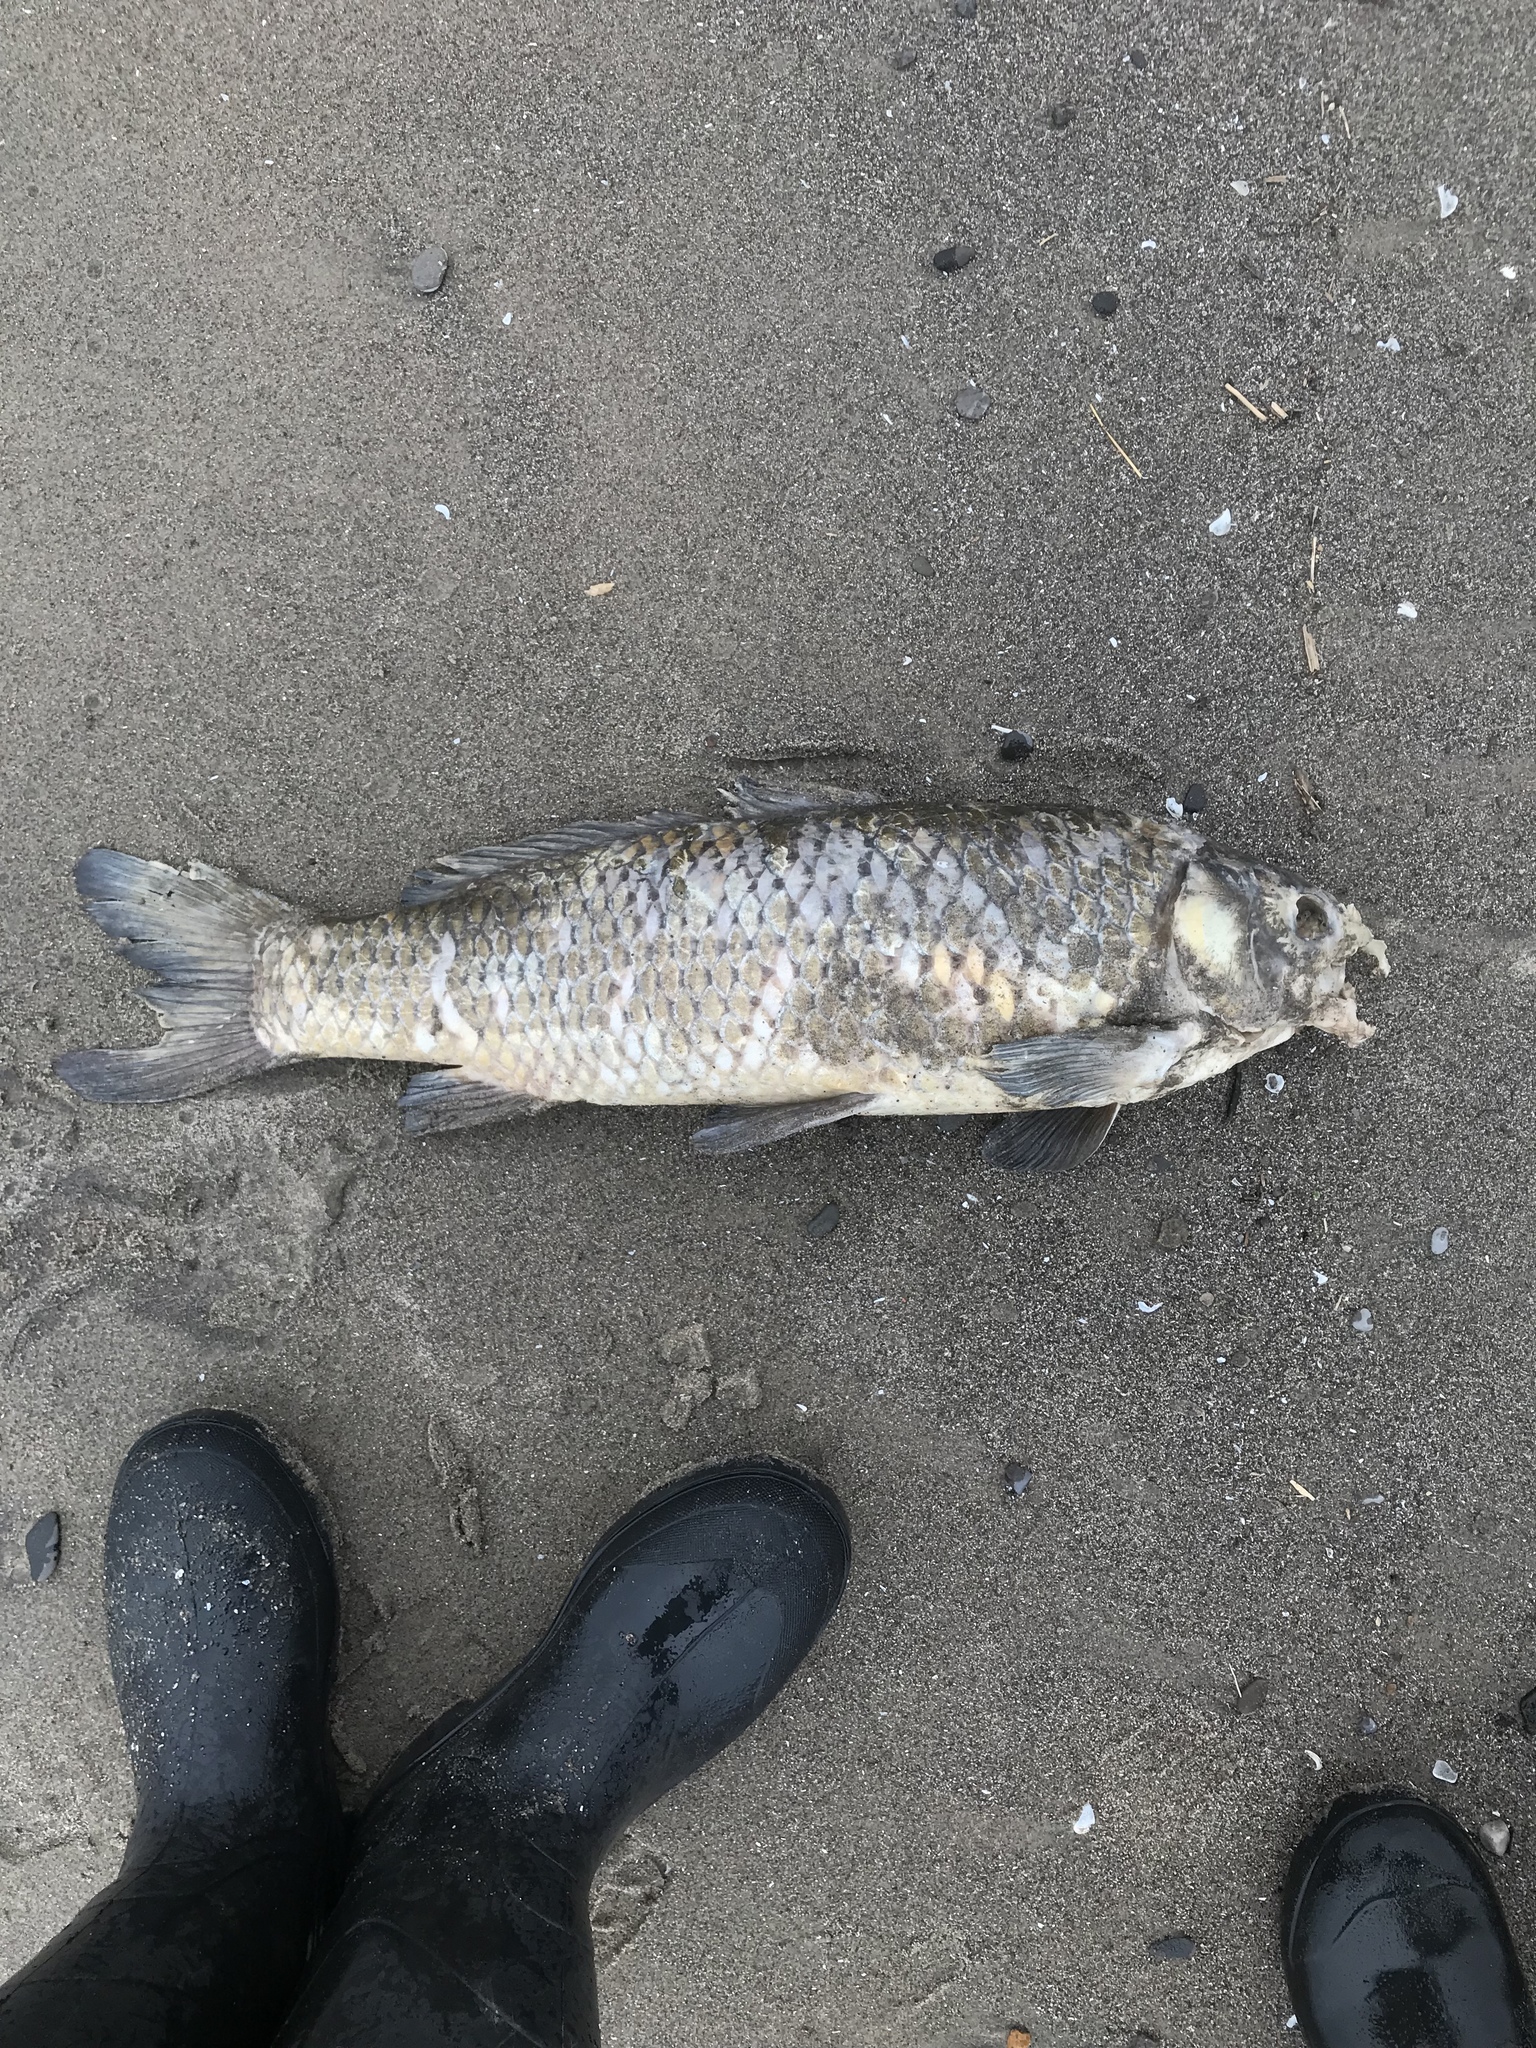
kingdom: Animalia
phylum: Chordata
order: Cypriniformes
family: Cyprinidae
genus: Cyprinus
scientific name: Cyprinus carpio
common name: Common carp
